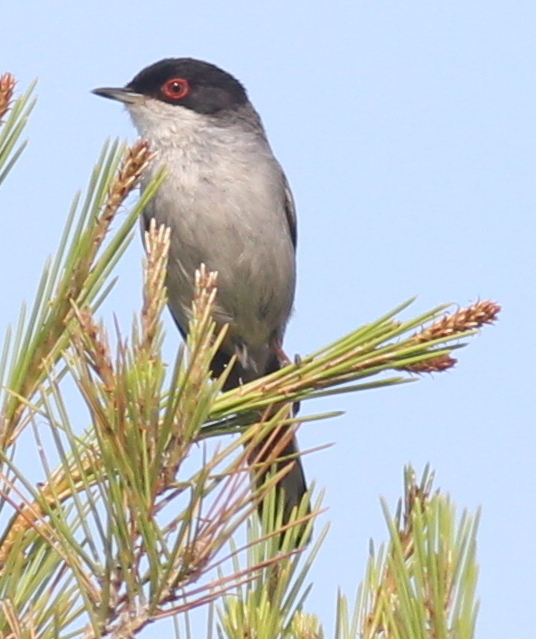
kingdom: Animalia
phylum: Chordata
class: Aves
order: Passeriformes
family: Sylviidae
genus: Curruca
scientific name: Curruca melanocephala
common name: Sardinian warbler
